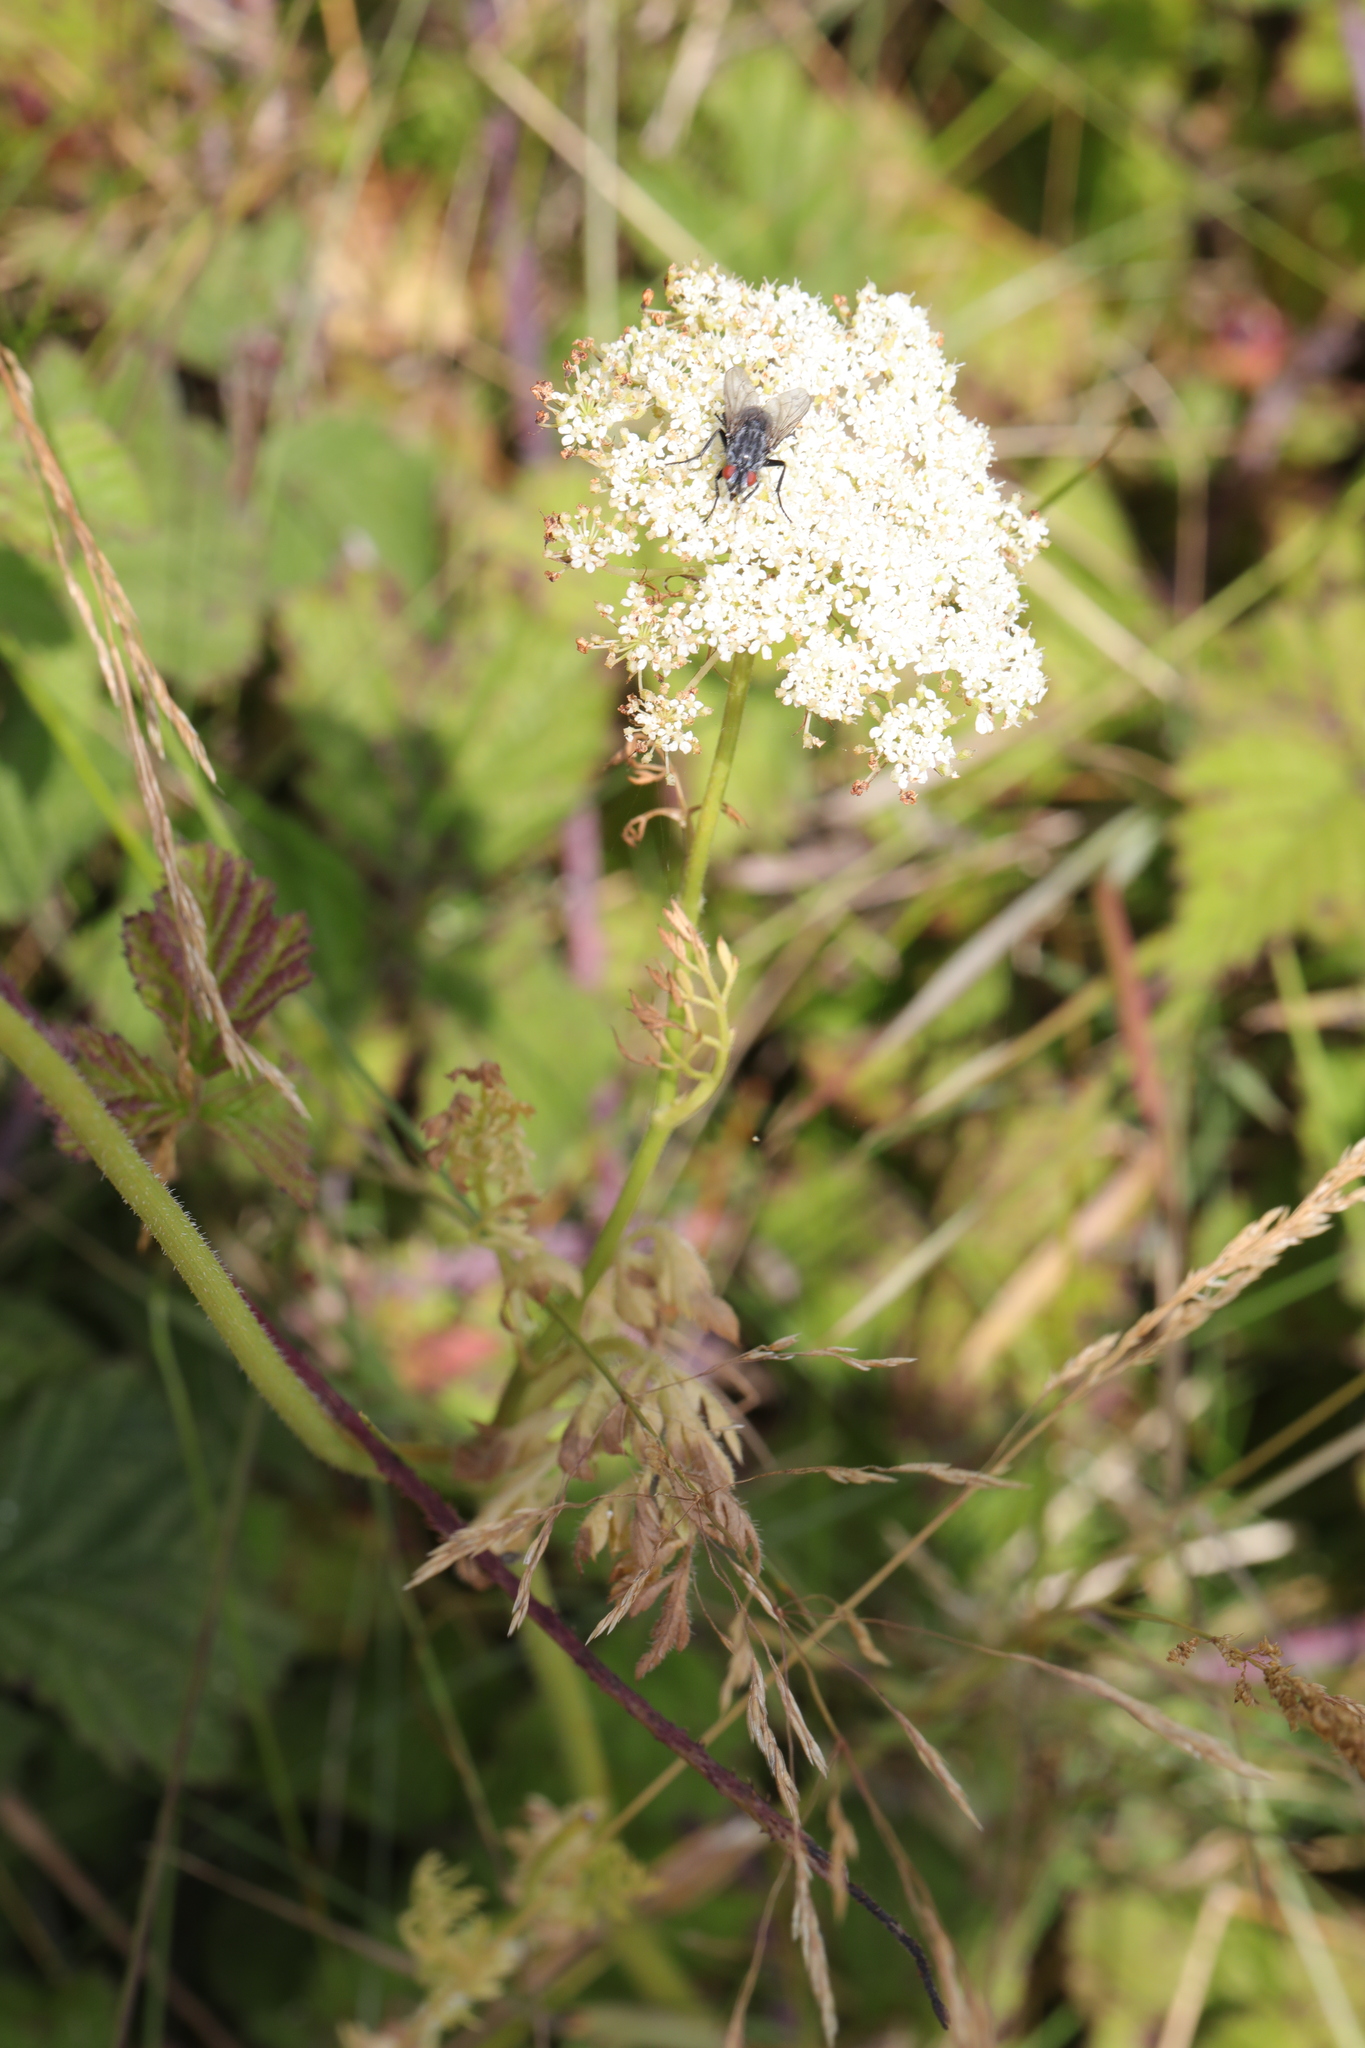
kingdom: Plantae
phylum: Tracheophyta
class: Magnoliopsida
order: Apiales
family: Apiaceae
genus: Daucus
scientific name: Daucus carota
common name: Wild carrot
